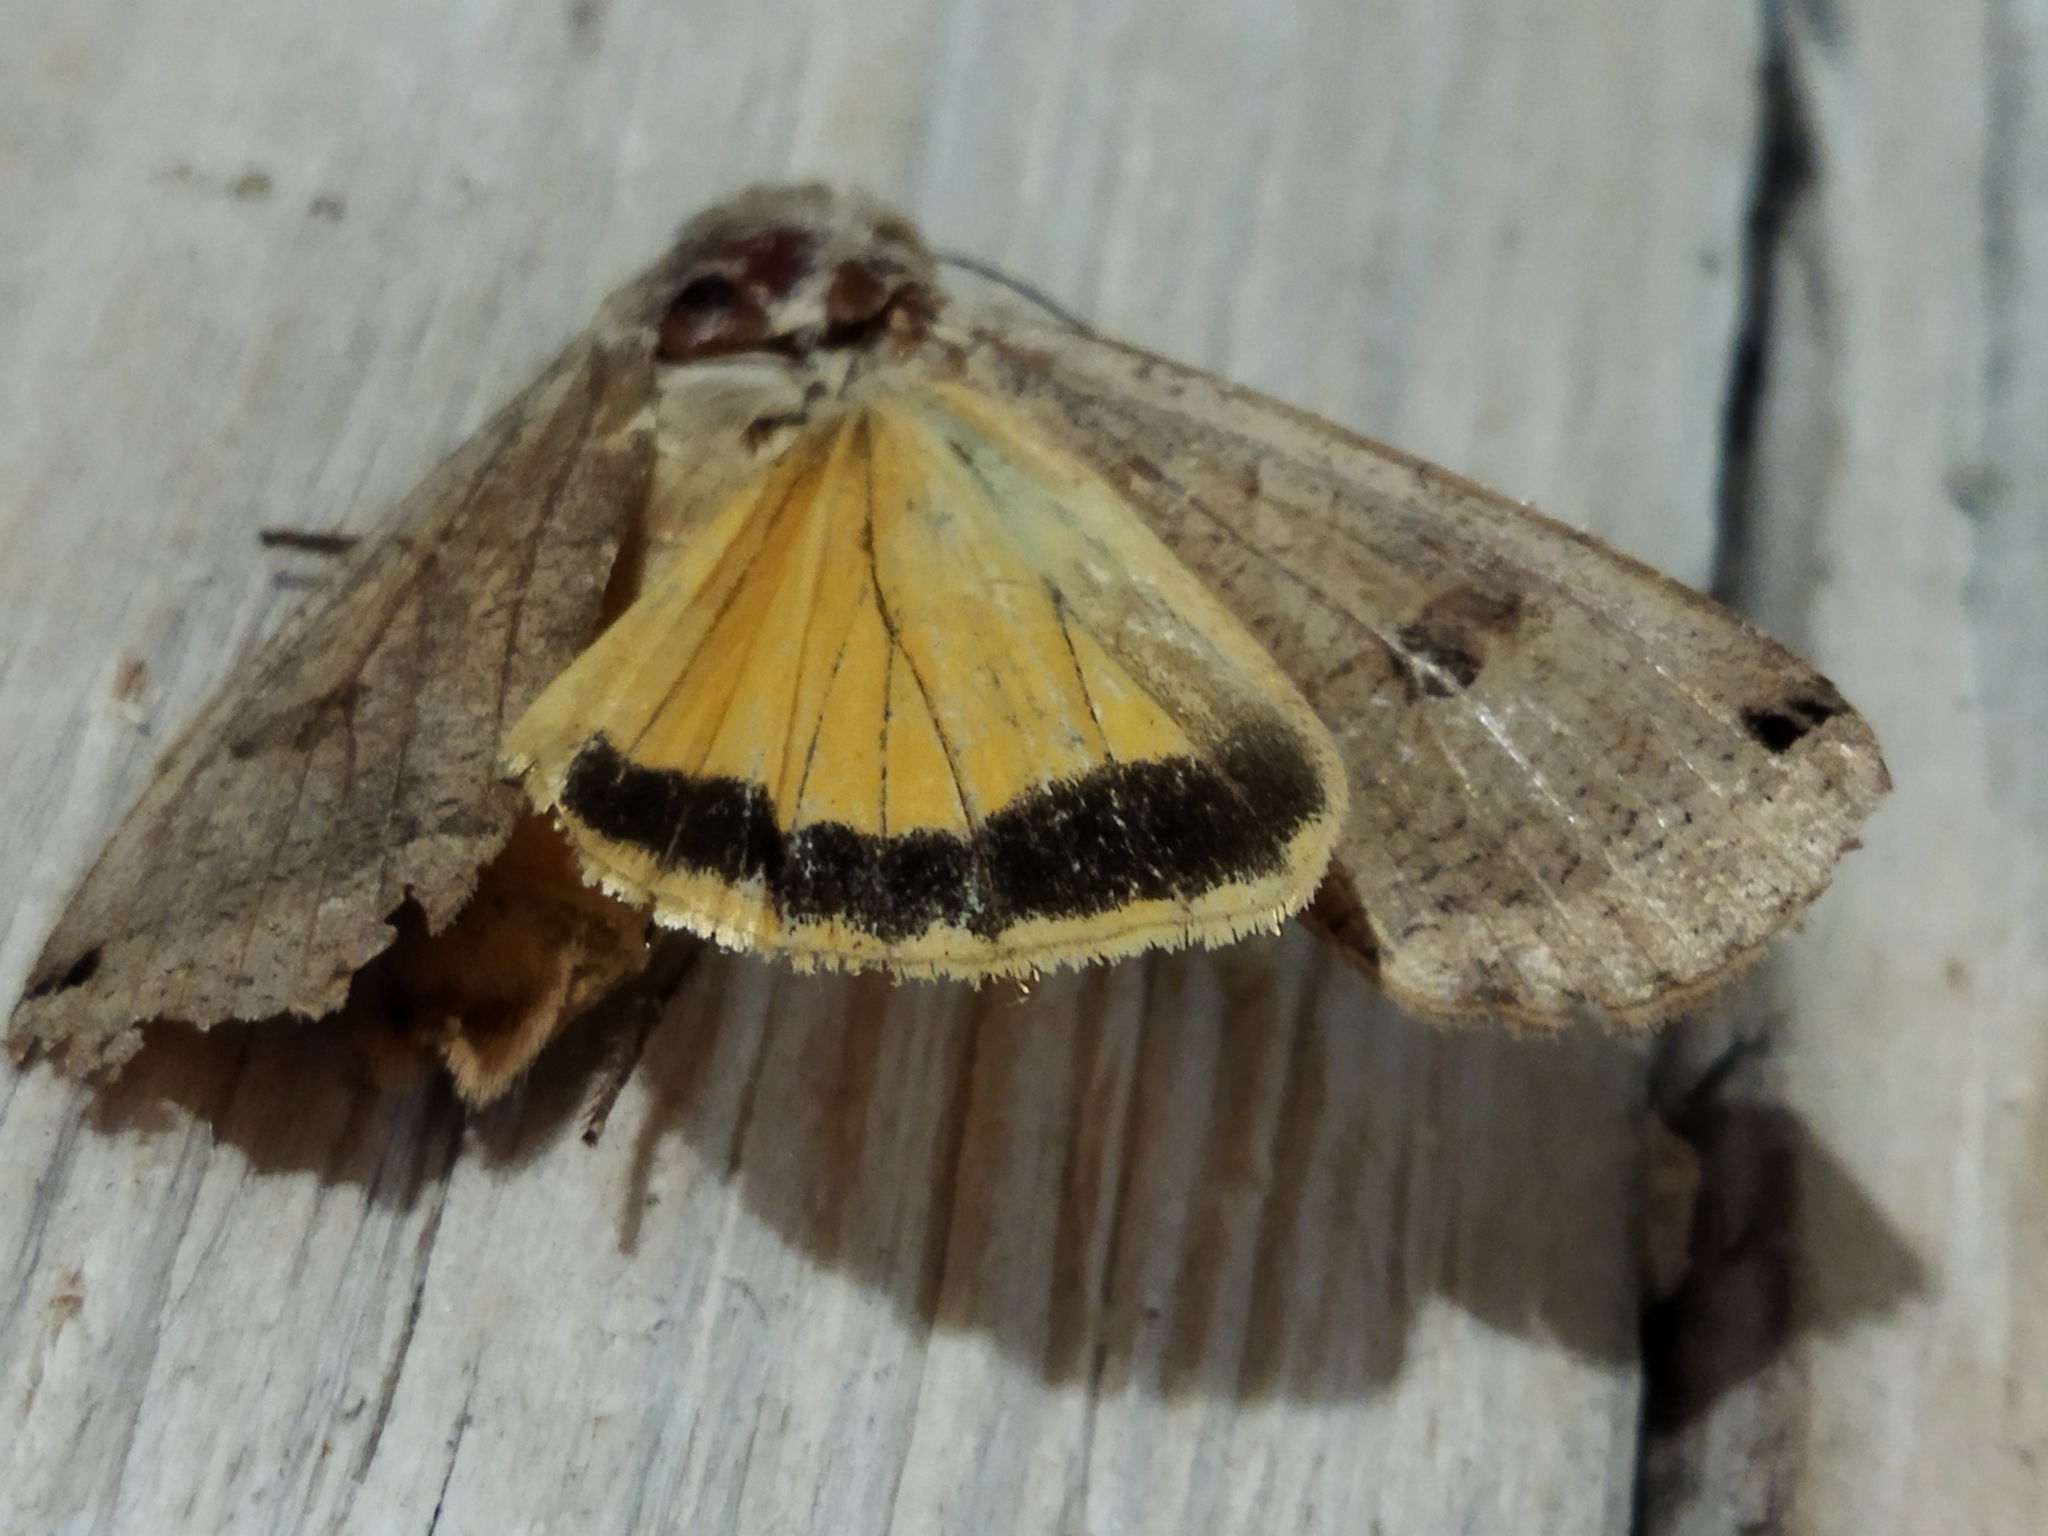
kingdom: Animalia
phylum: Arthropoda
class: Insecta
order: Lepidoptera
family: Noctuidae
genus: Noctua
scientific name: Noctua pronuba
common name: Large yellow underwing
